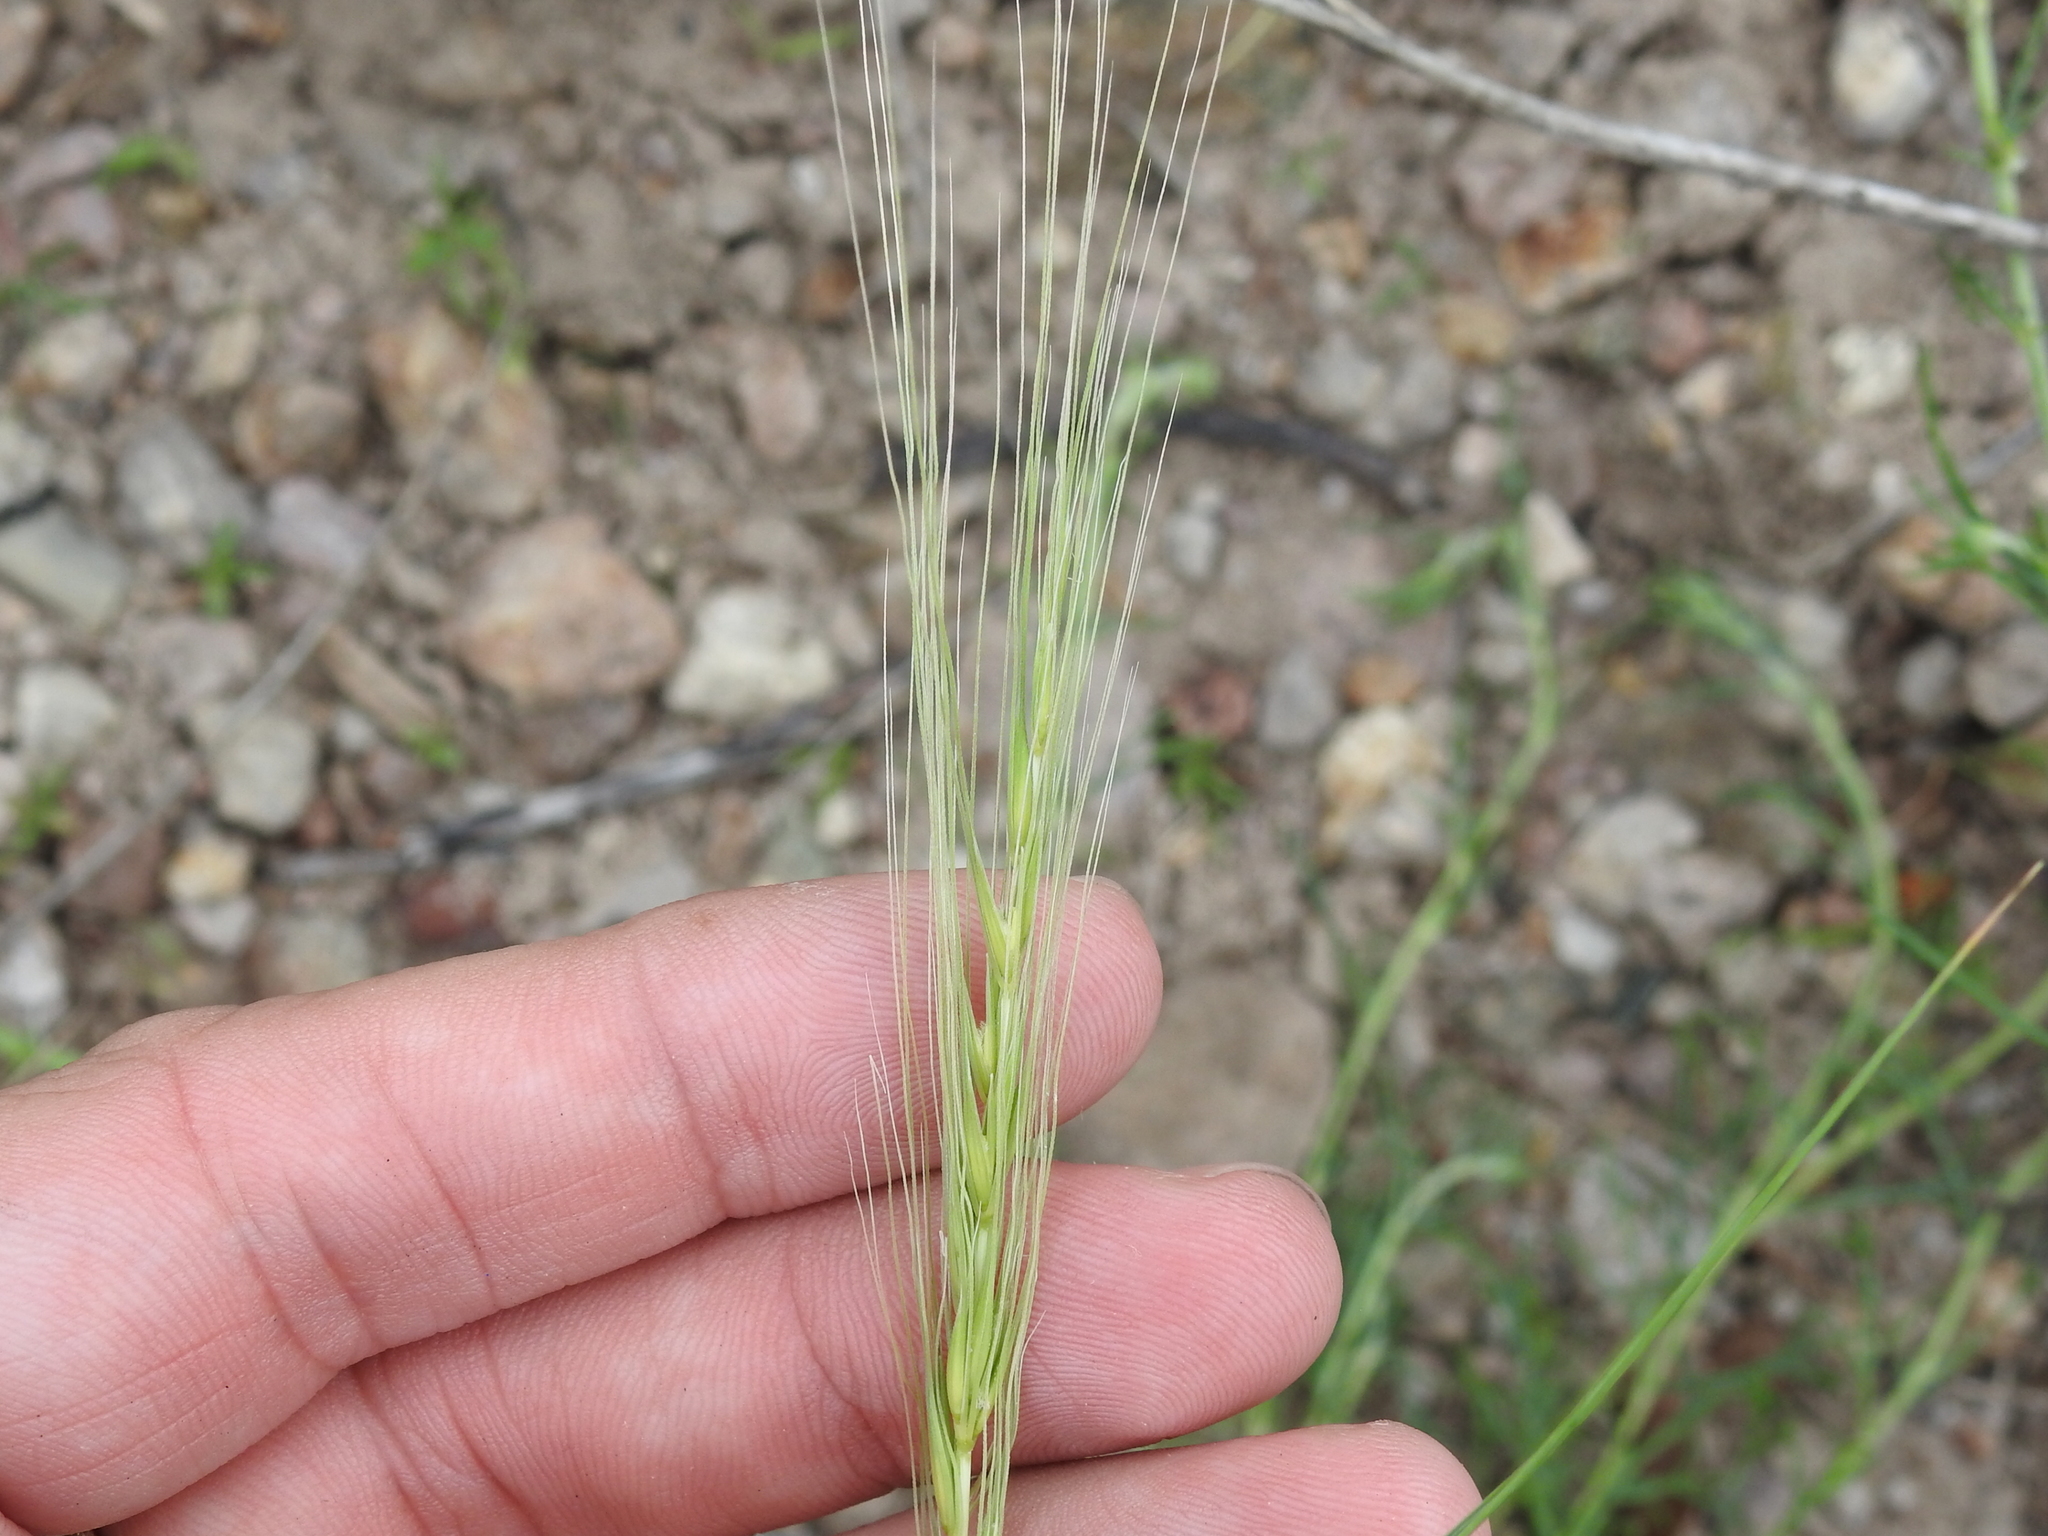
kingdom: Plantae
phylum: Tracheophyta
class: Liliopsida
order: Poales
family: Poaceae
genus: Elymus
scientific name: Elymus longifolius
